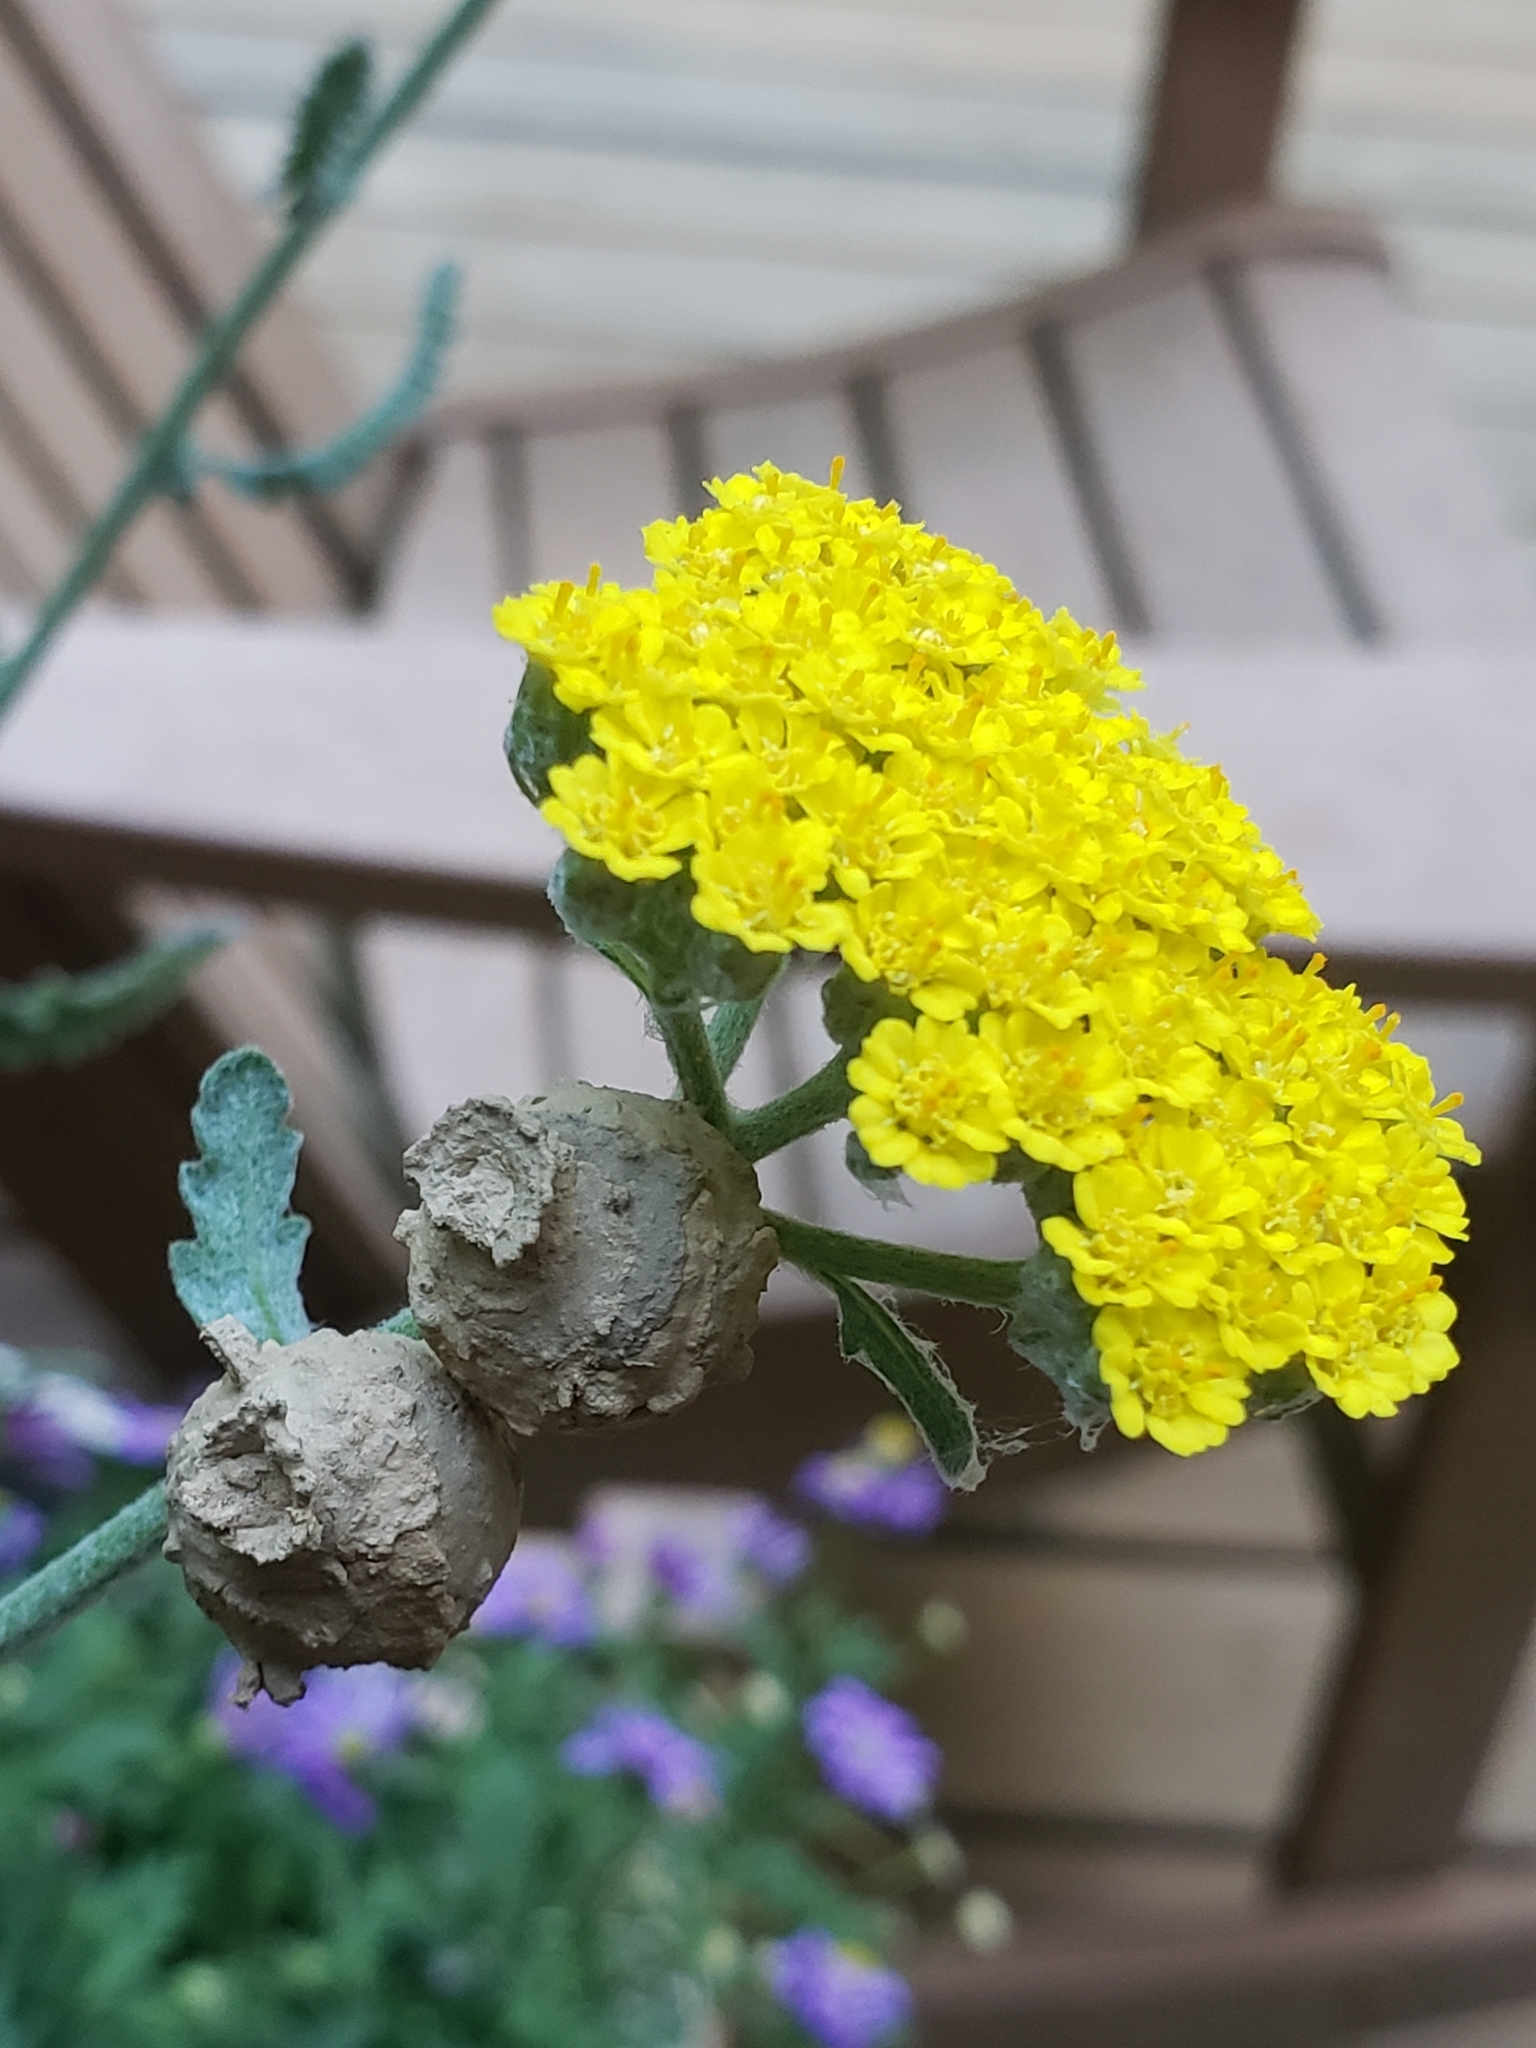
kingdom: Animalia
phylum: Arthropoda
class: Insecta
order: Hymenoptera
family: Vespidae
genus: Eumenes
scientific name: Eumenes
